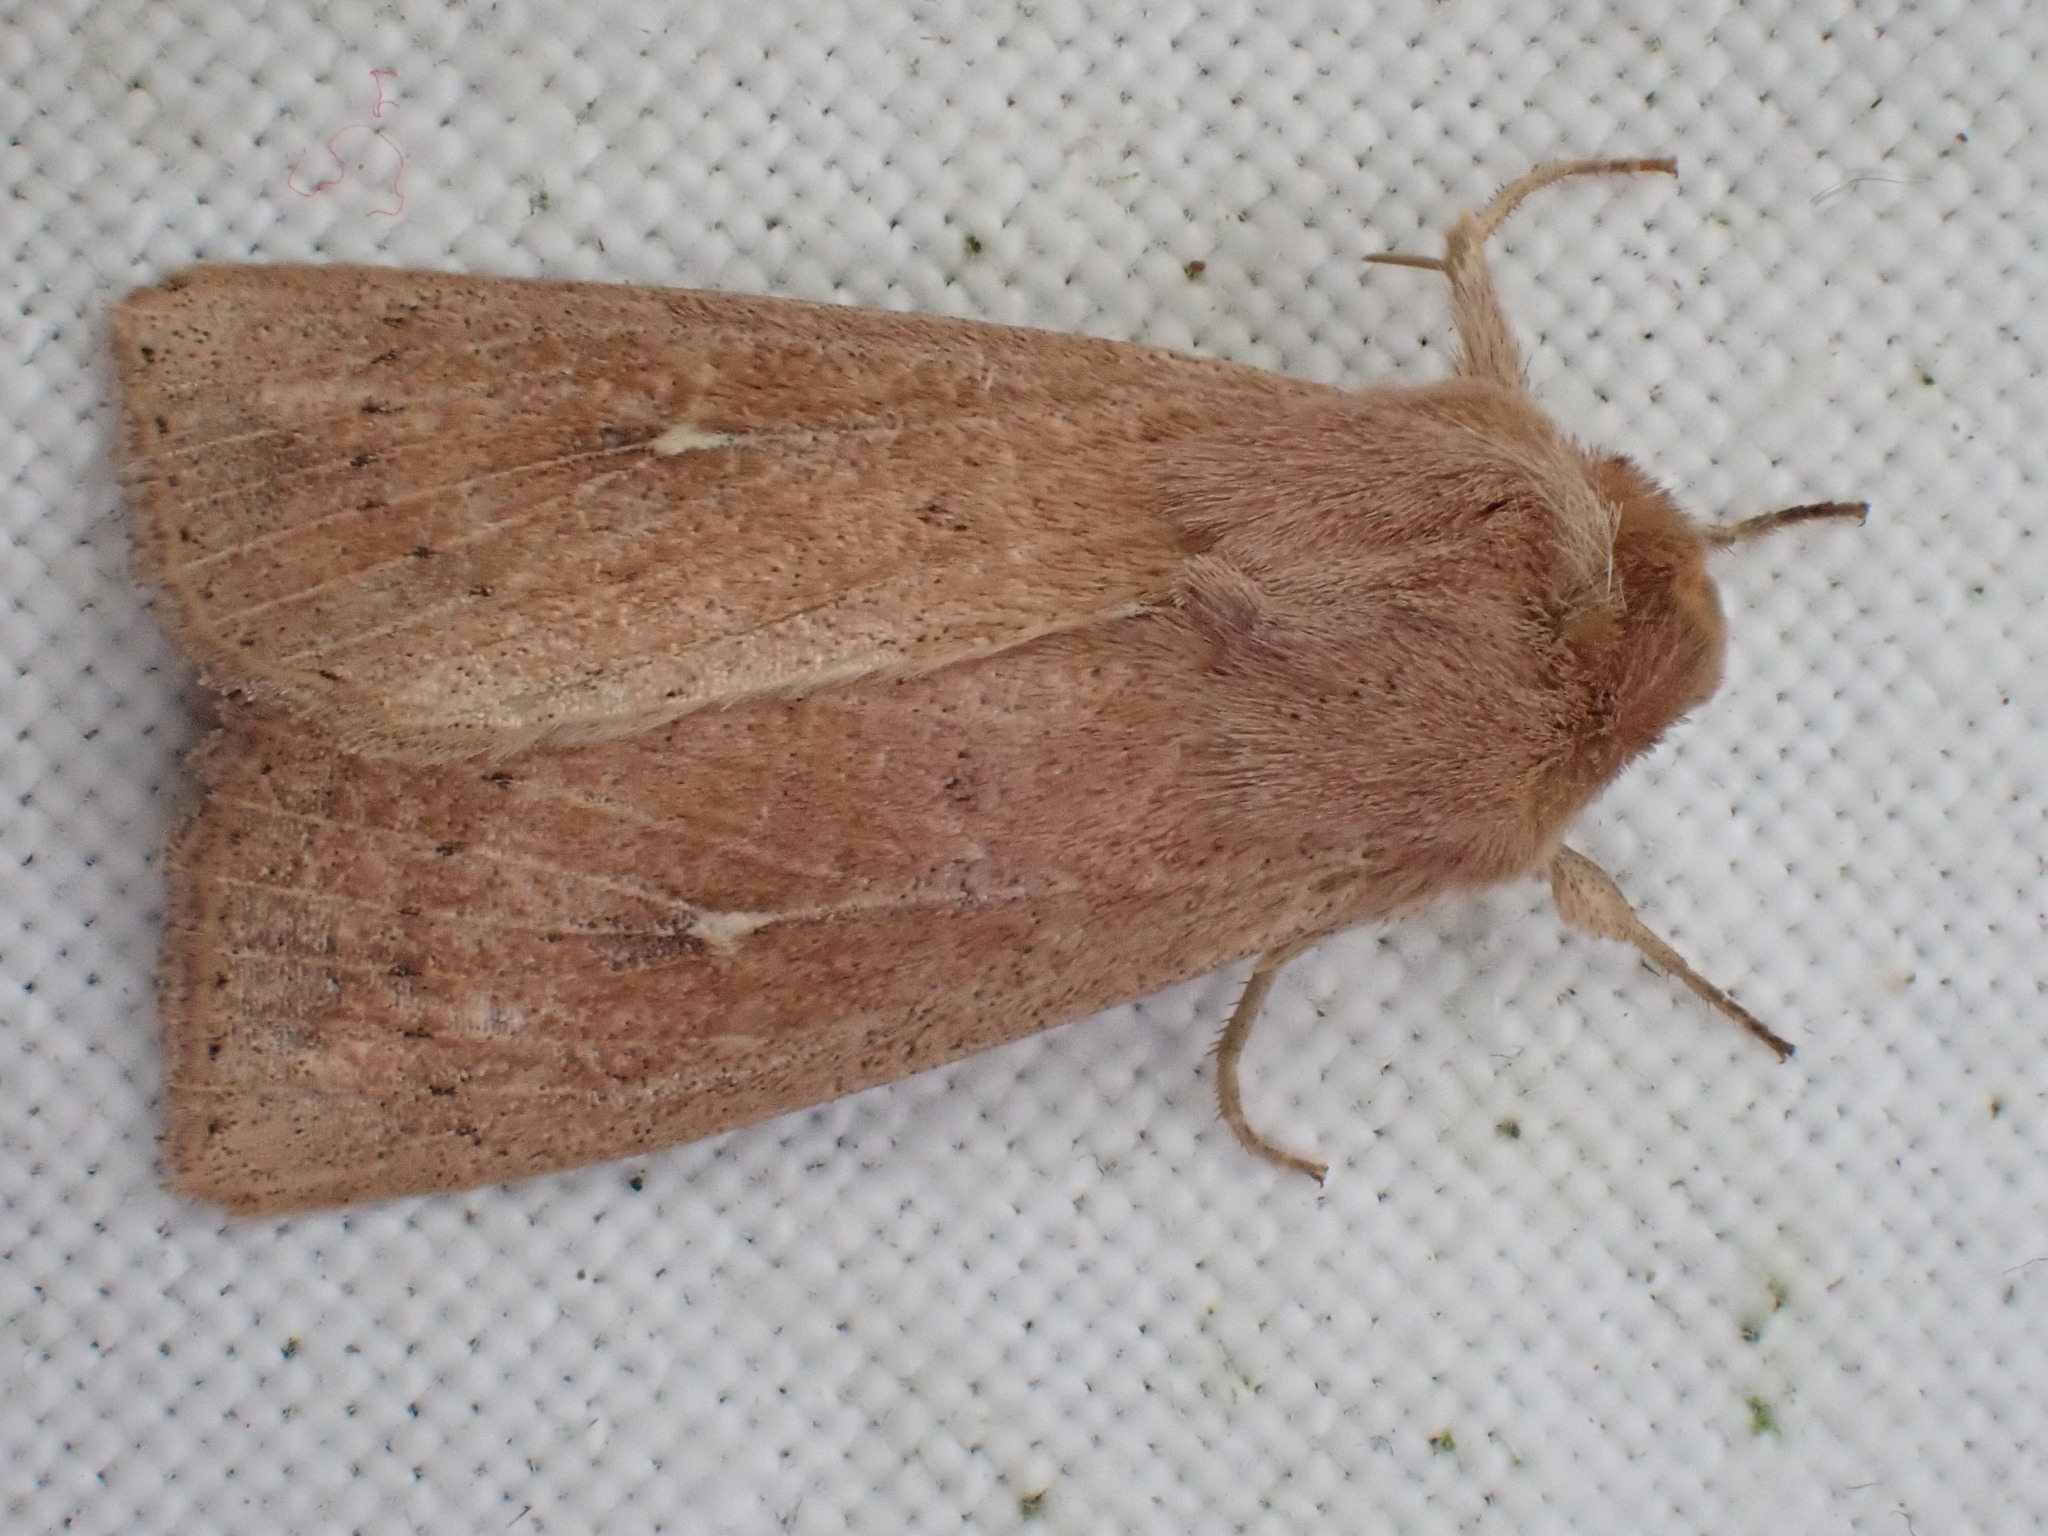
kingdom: Animalia
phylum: Arthropoda
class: Insecta
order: Lepidoptera
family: Noctuidae
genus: Mythimna
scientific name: Mythimna ferrago
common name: Clay
